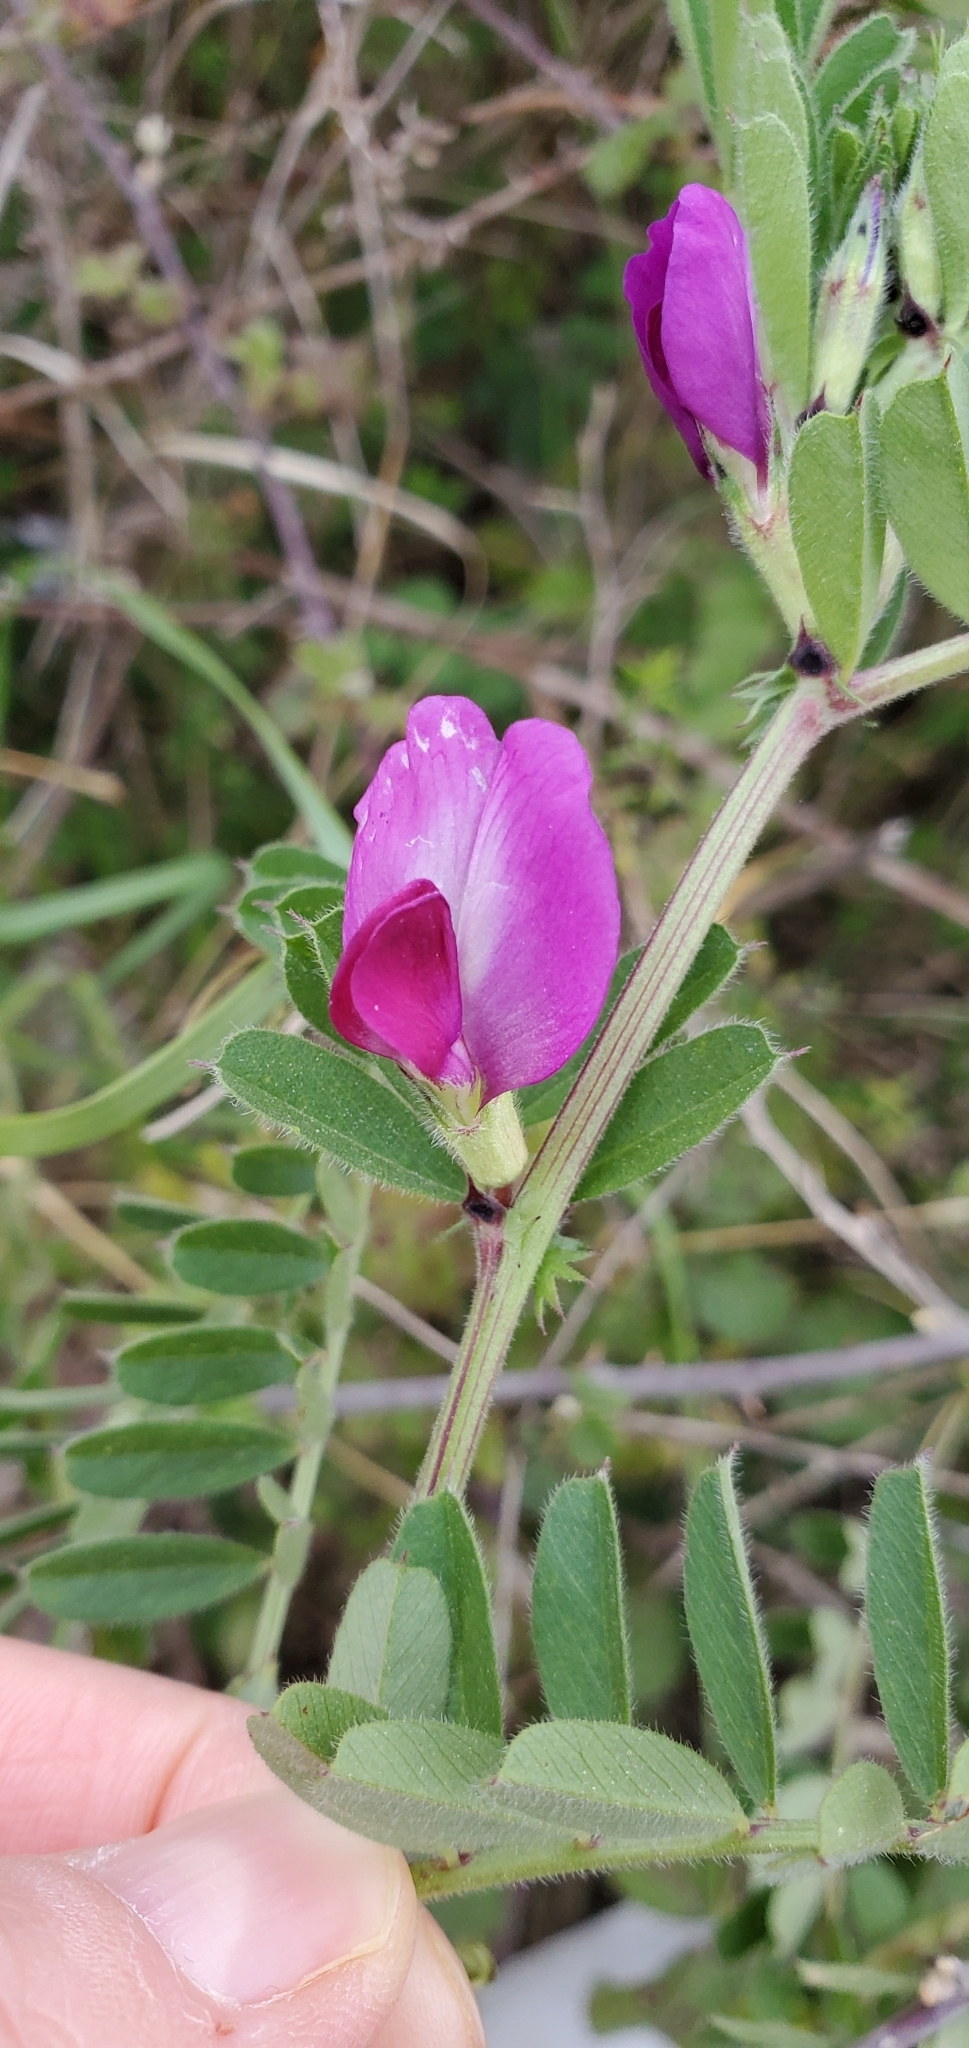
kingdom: Plantae
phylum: Tracheophyta
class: Magnoliopsida
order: Fabales
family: Fabaceae
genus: Vicia
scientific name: Vicia sativa
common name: Garden vetch
